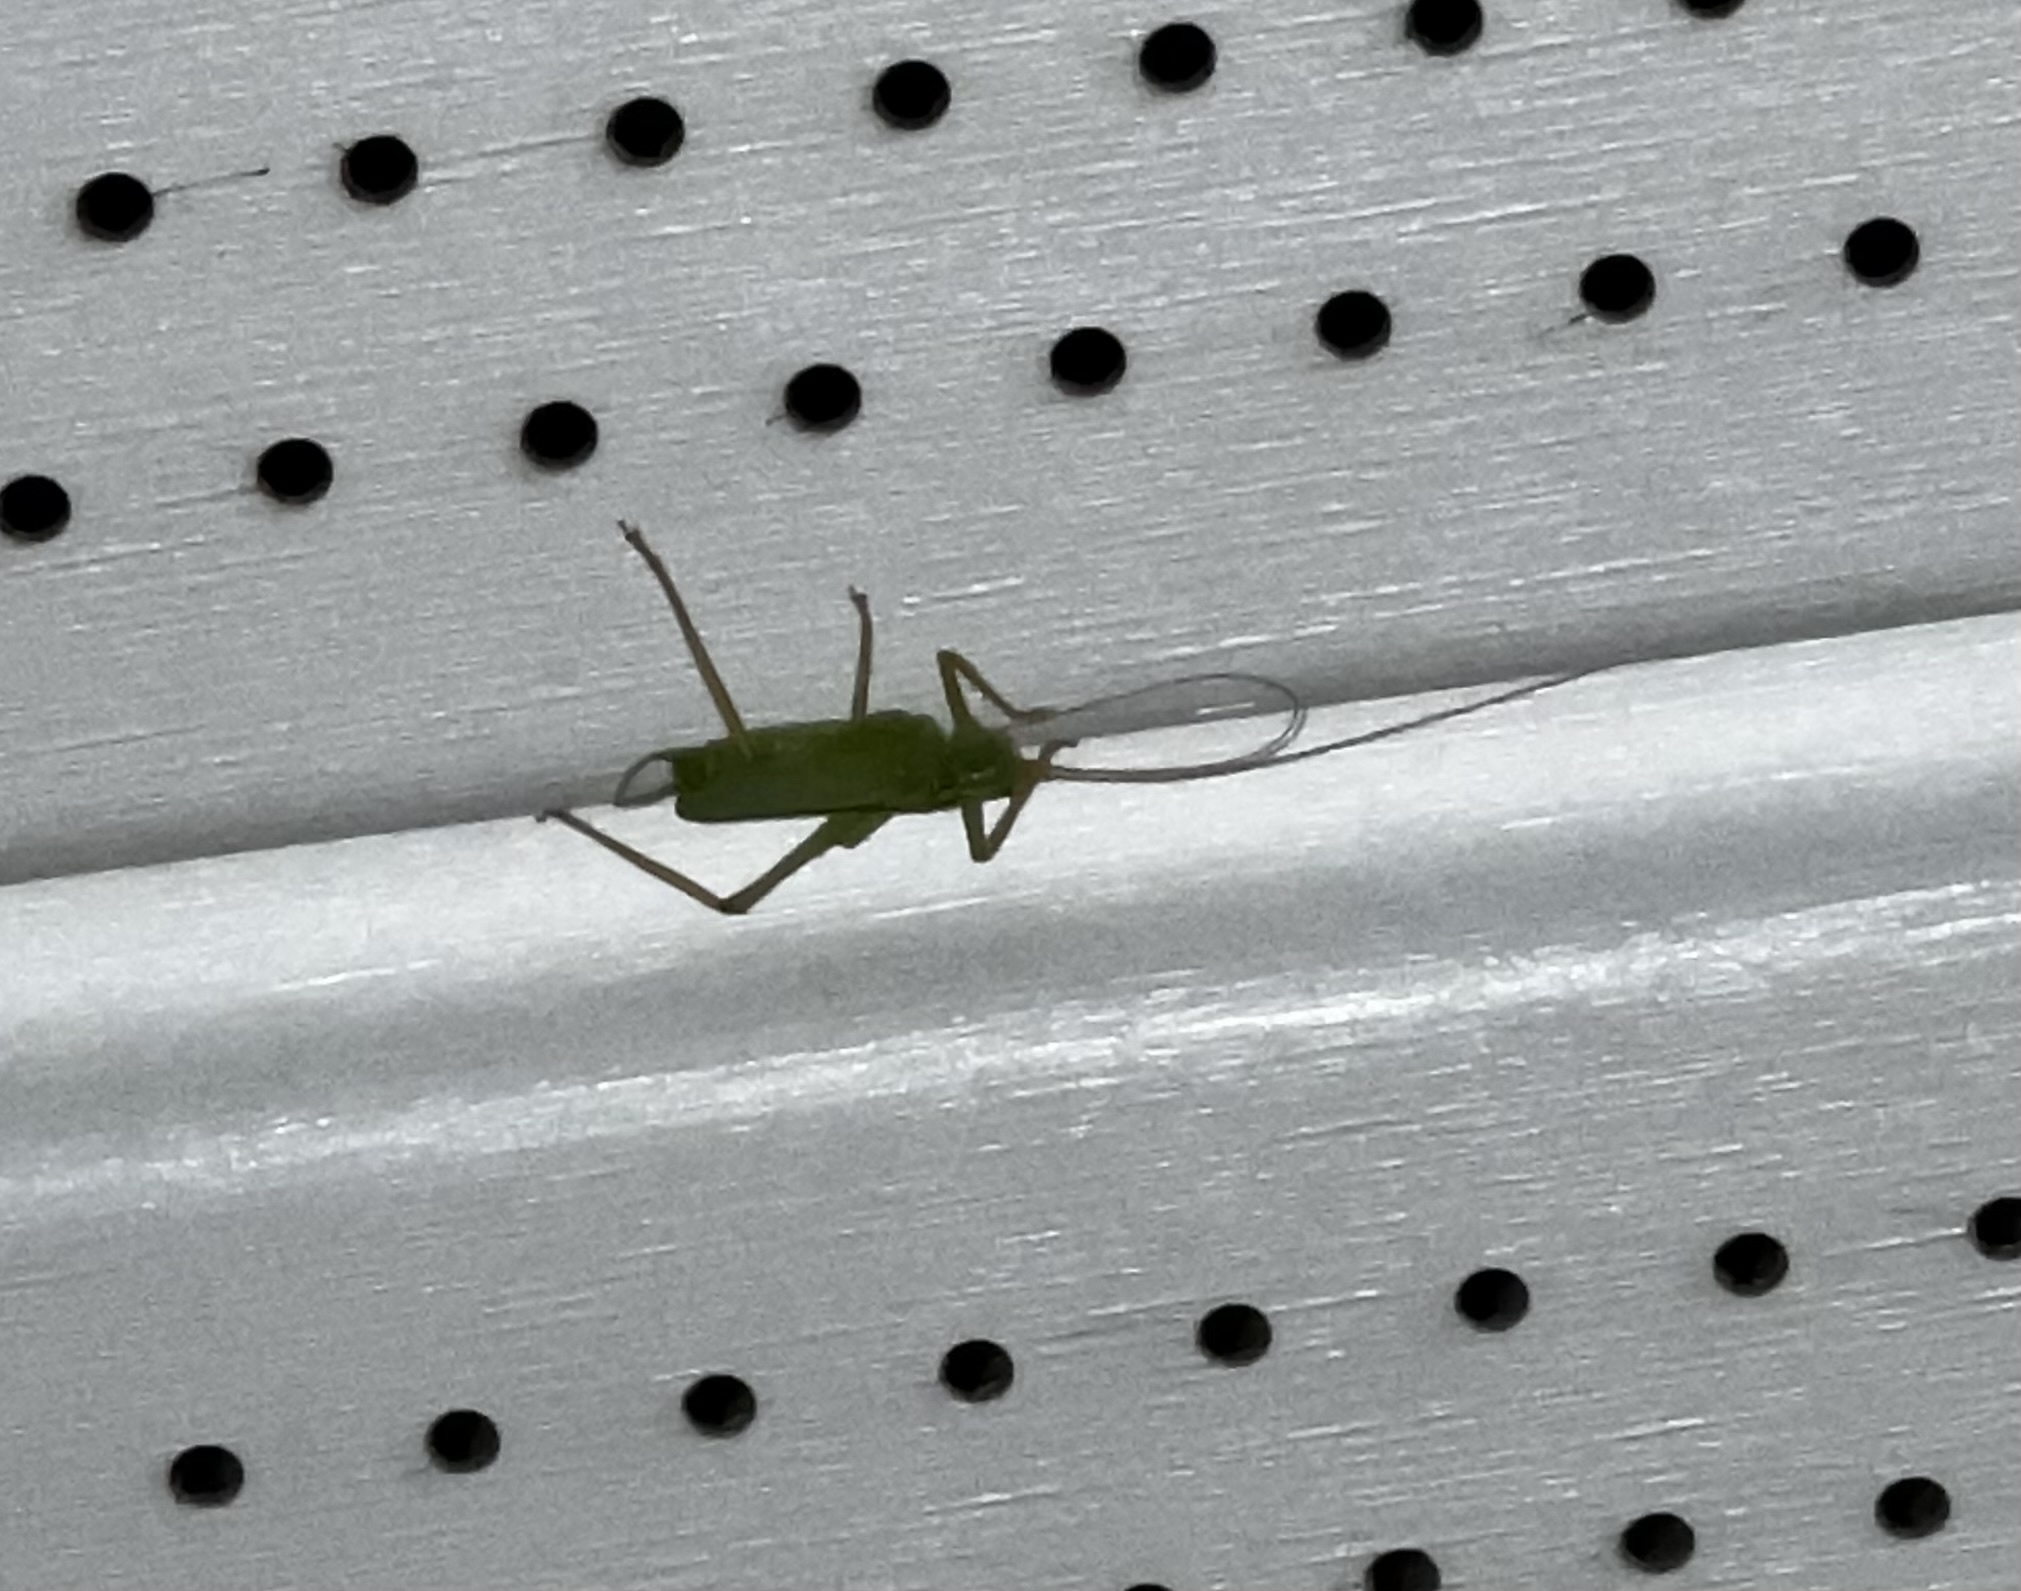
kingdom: Animalia
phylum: Arthropoda
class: Insecta
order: Orthoptera
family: Tettigoniidae
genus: Meconema
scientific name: Meconema thalassinum
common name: Oak bush-cricket
